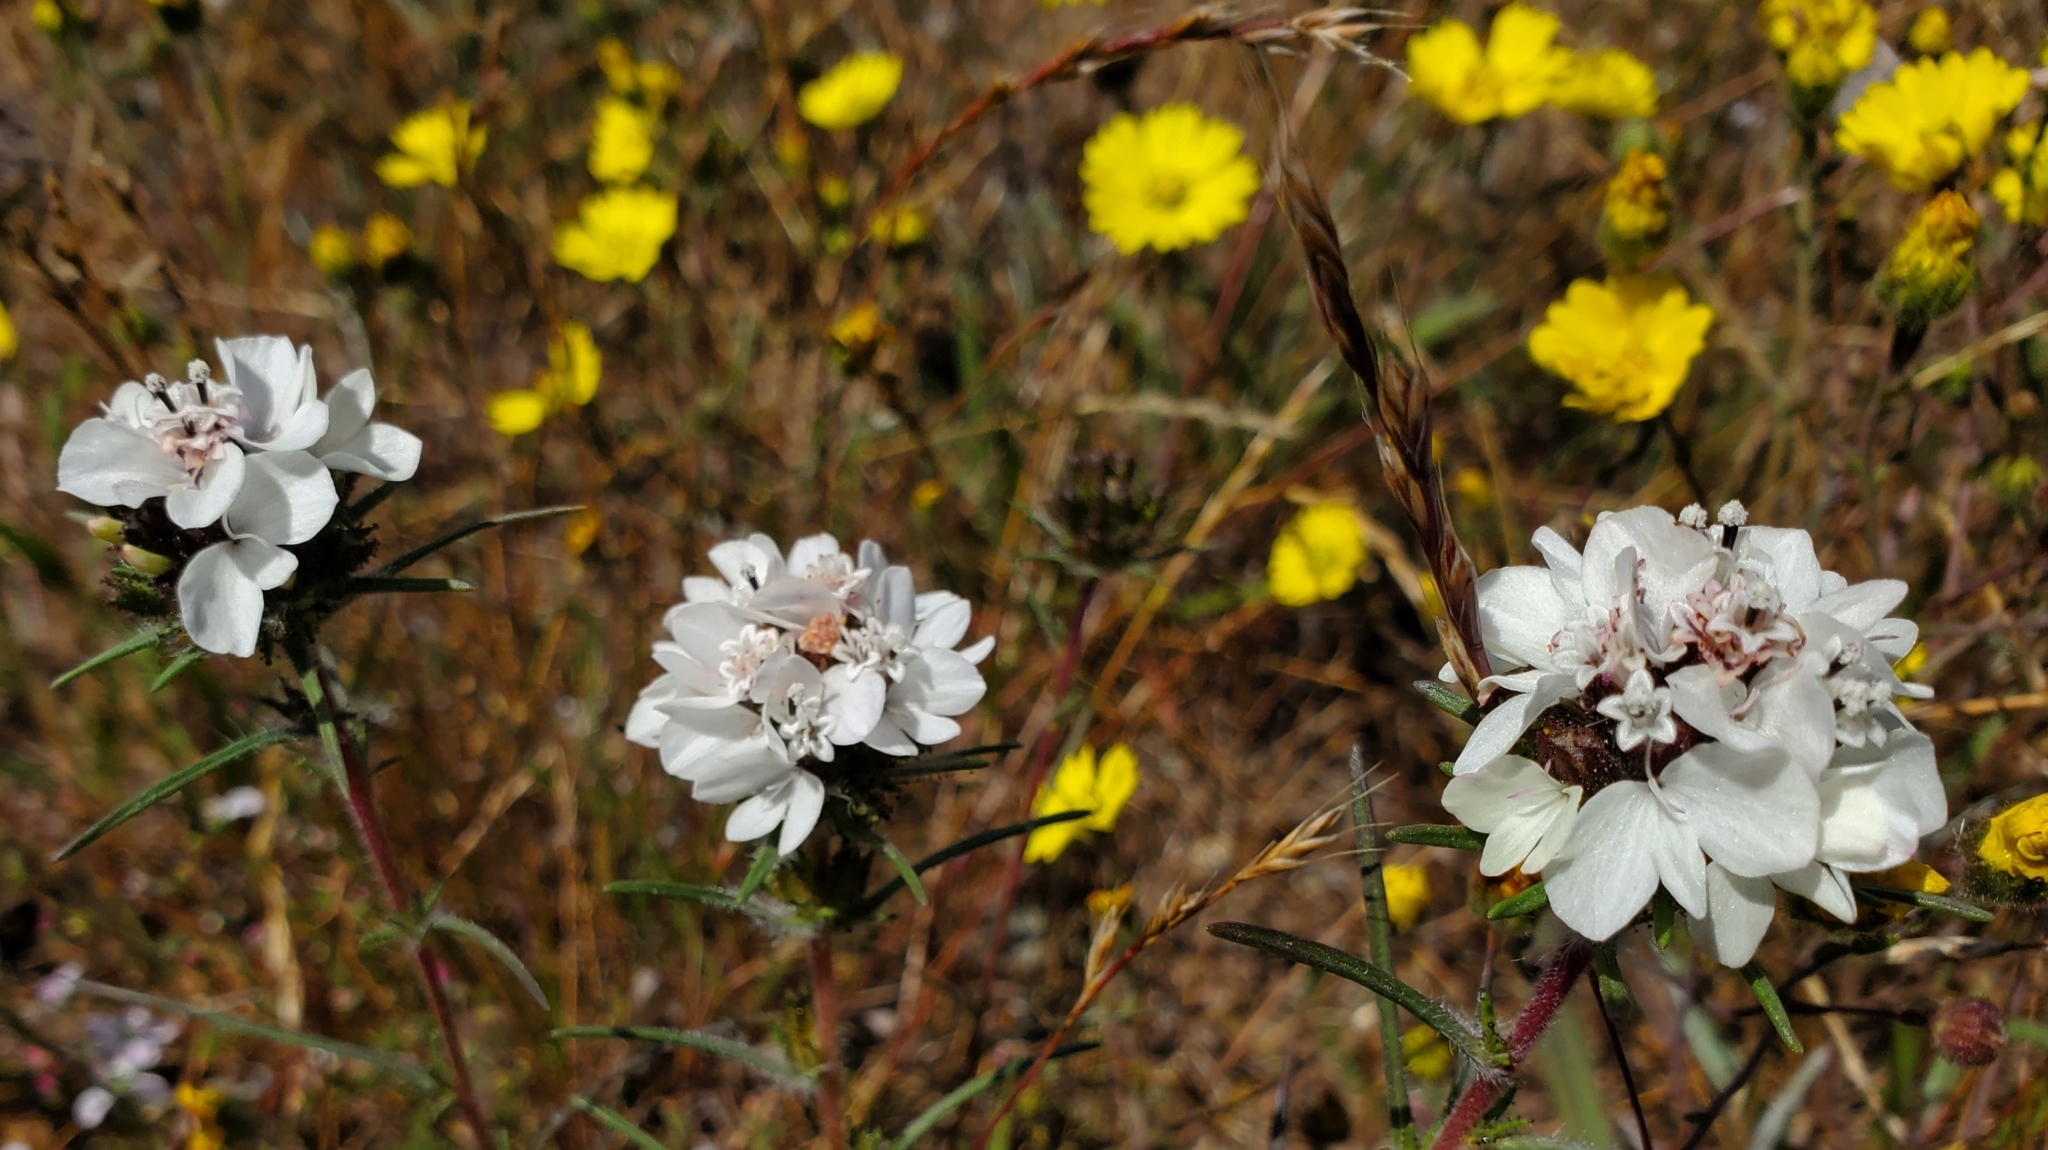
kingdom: Plantae
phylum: Tracheophyta
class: Magnoliopsida
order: Asterales
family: Asteraceae
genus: Calycadenia
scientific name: Calycadenia multiglandulosa
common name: Sticky calycadenia
